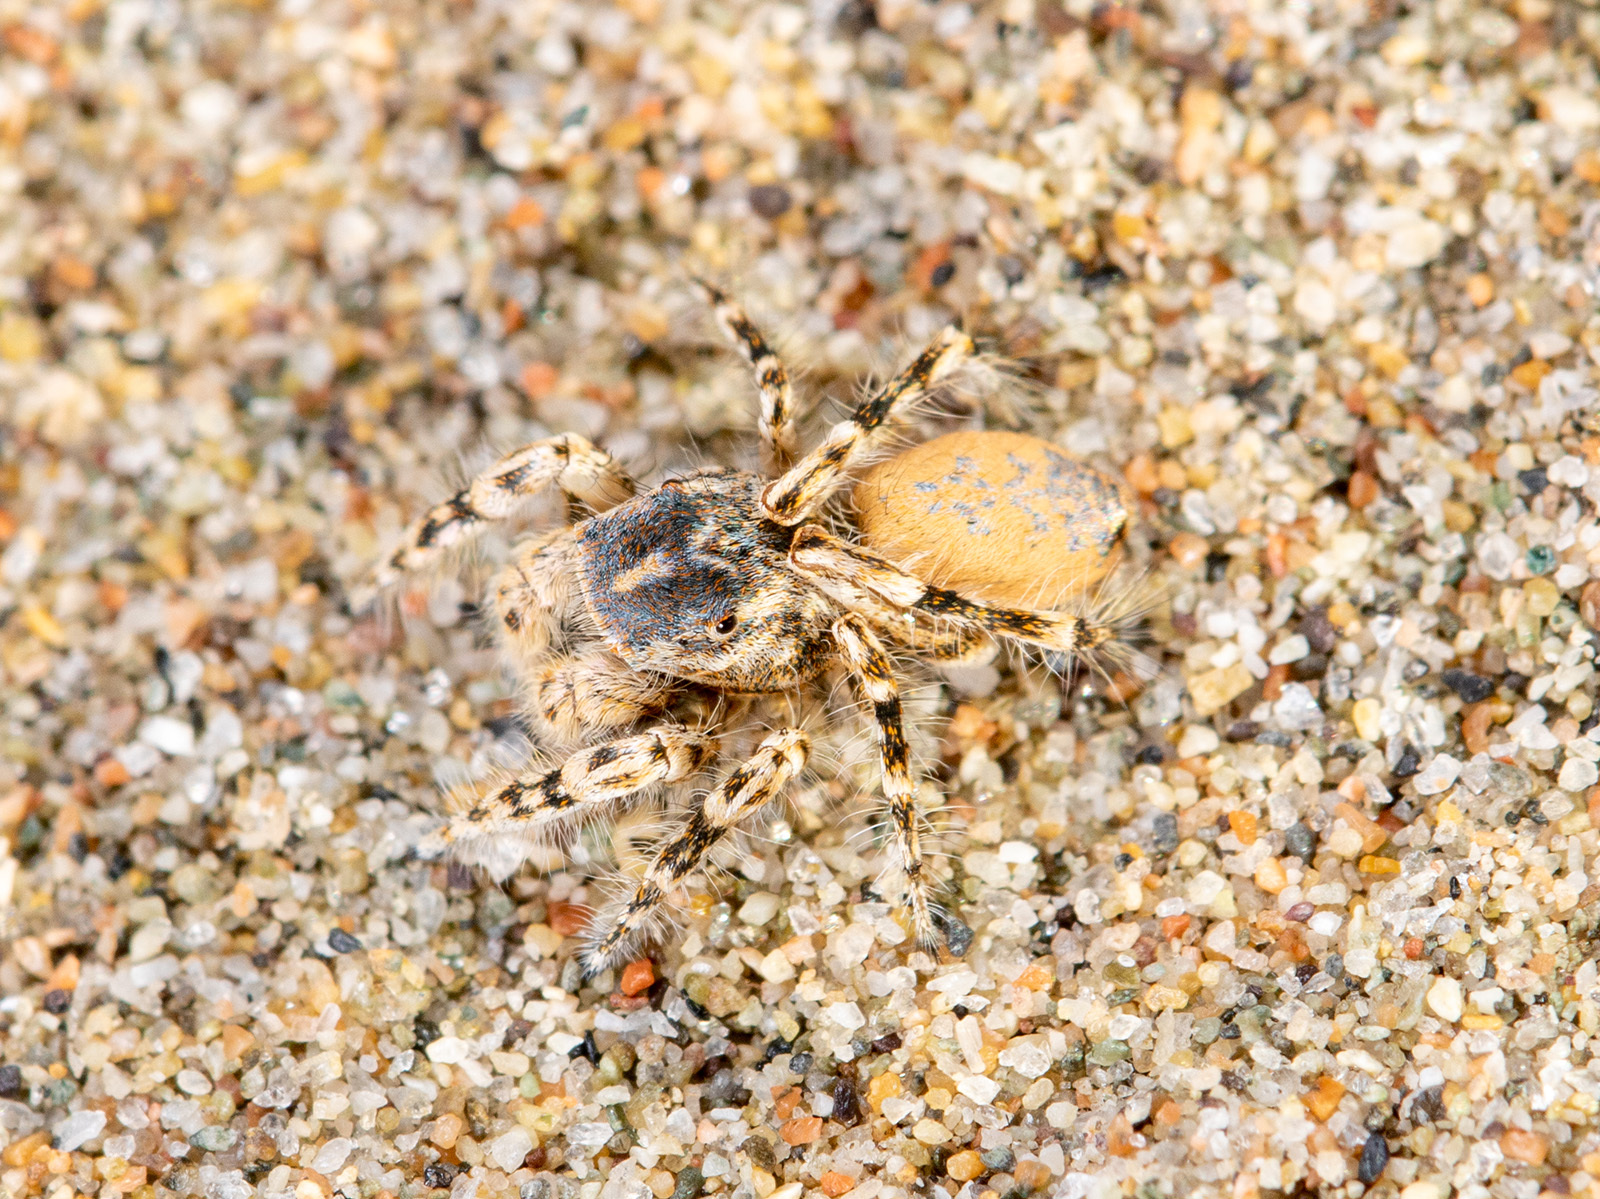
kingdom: Animalia
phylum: Arthropoda
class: Arachnida
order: Araneae
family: Salticidae
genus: Yllenus
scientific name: Yllenus turkestanicus
